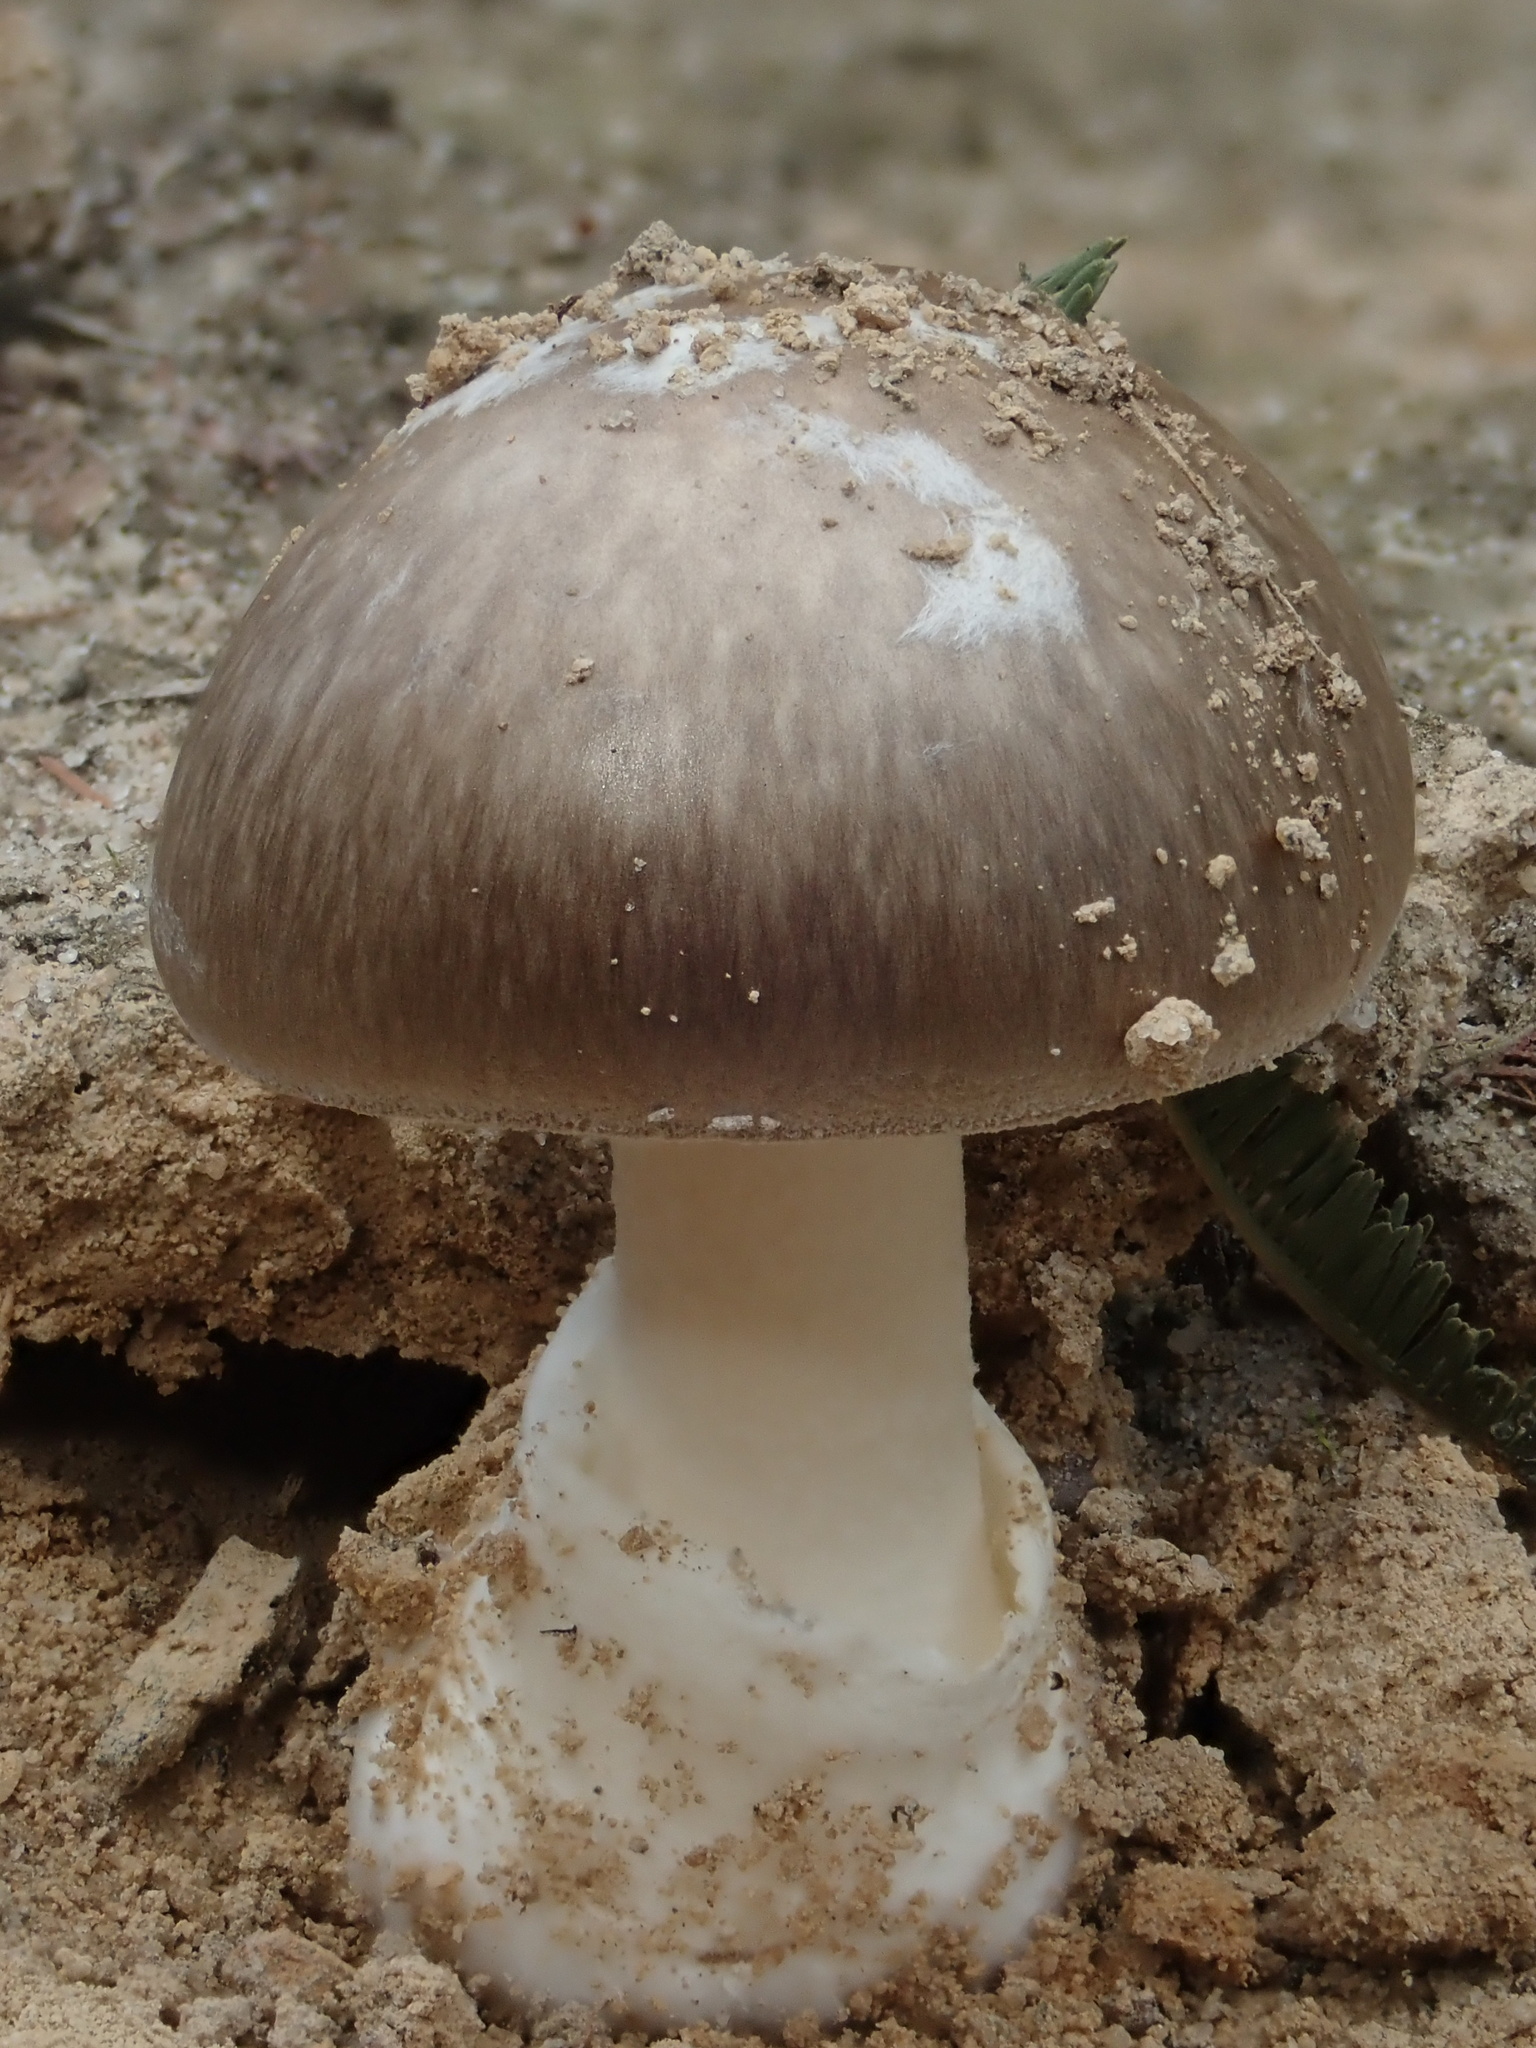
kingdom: Fungi
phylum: Basidiomycota
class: Agaricomycetes
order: Agaricales
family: Amanitaceae
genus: Amanita
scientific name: Amanita marmorata
